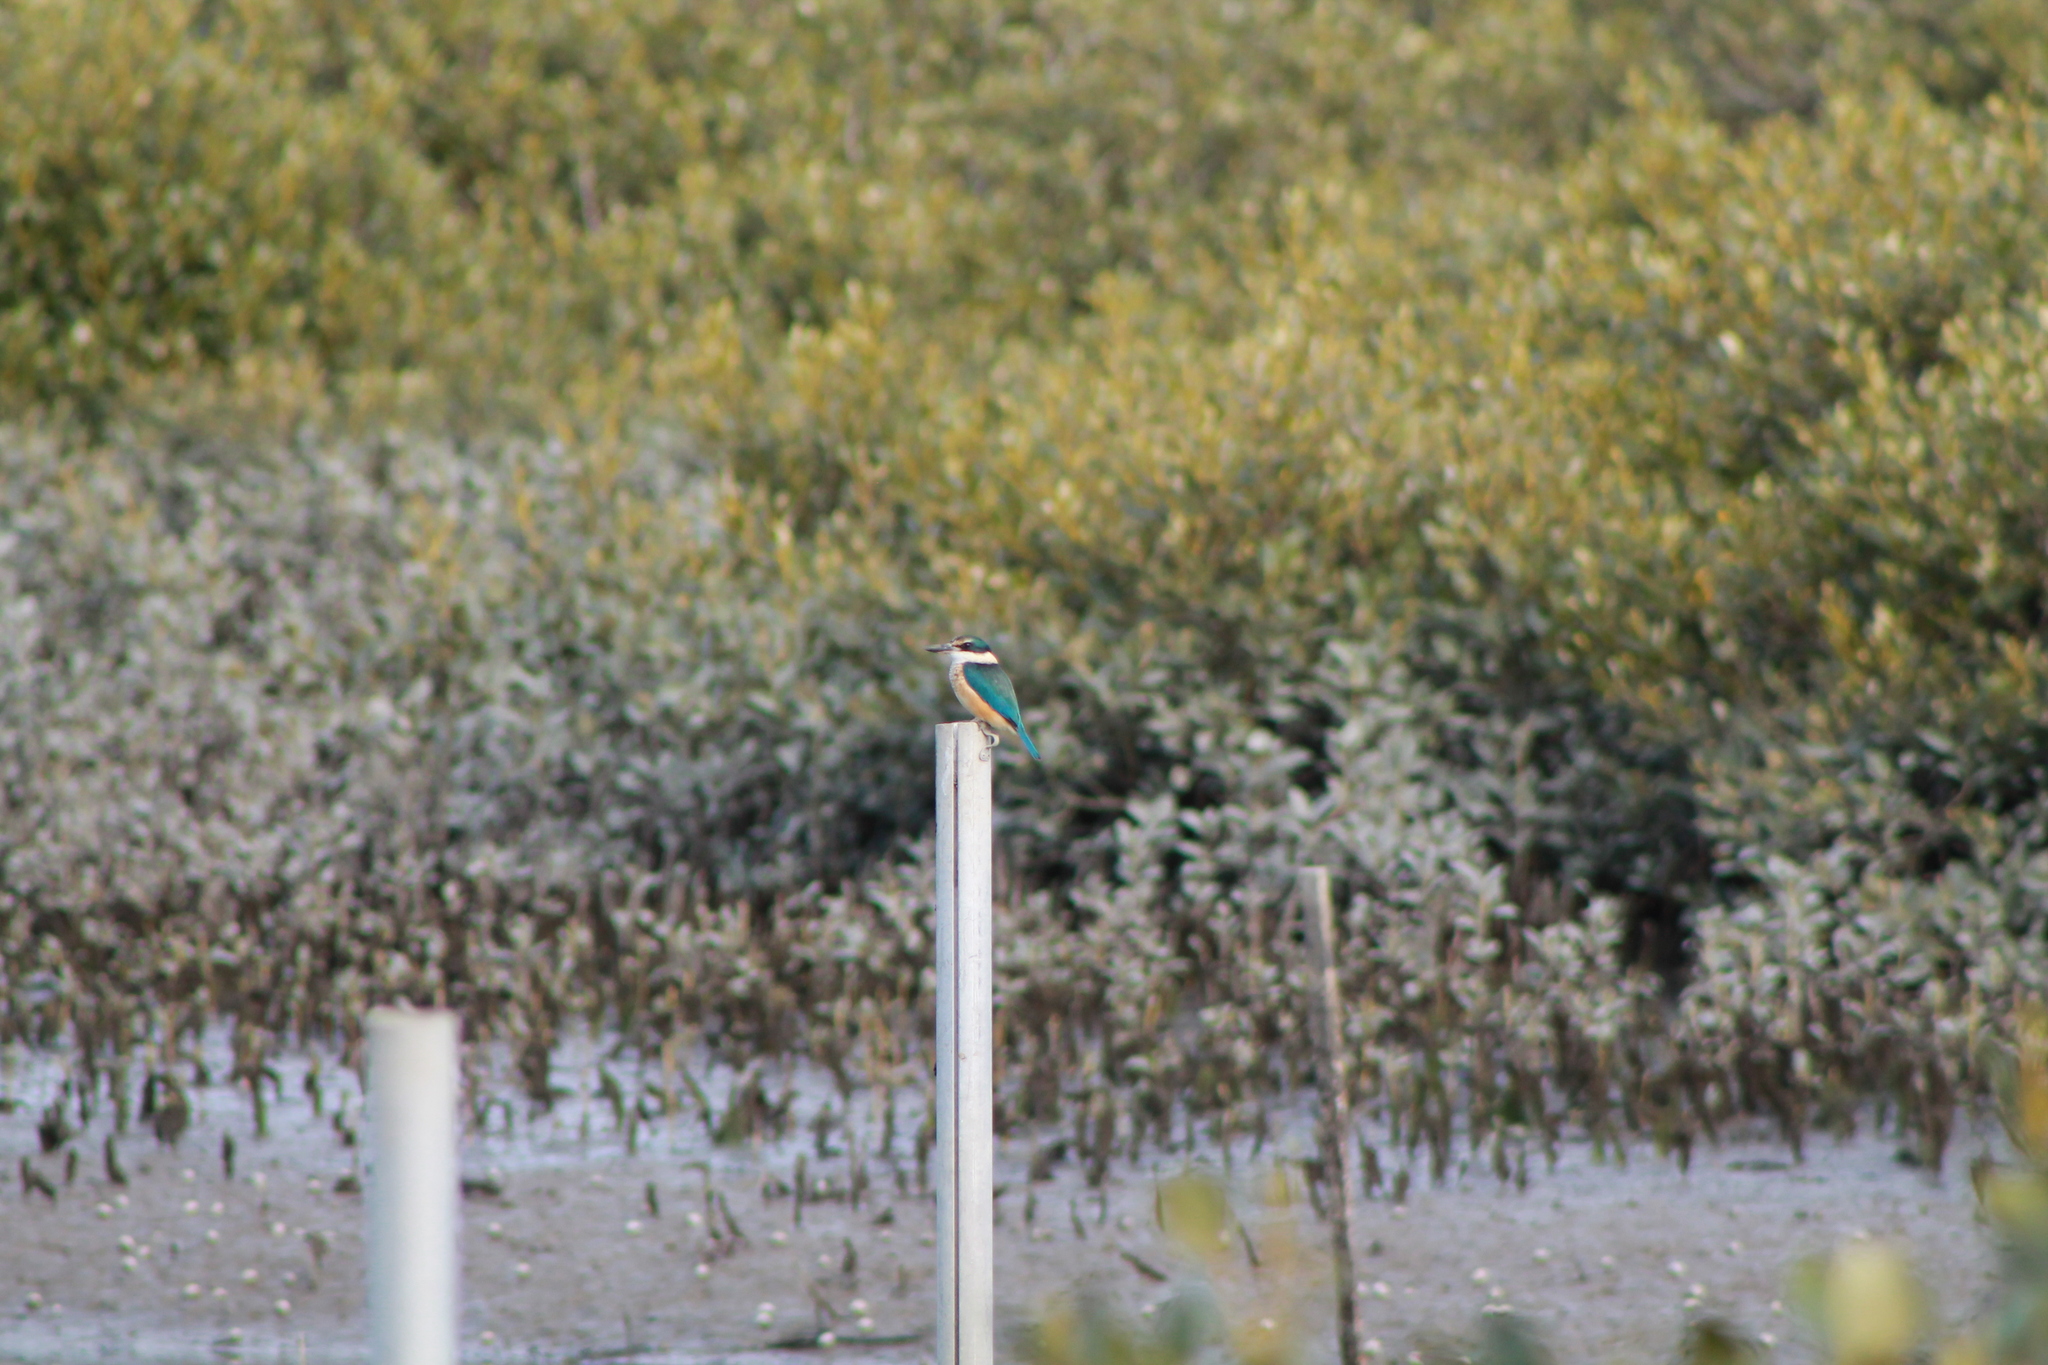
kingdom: Animalia
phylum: Chordata
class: Aves
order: Coraciiformes
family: Alcedinidae
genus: Todiramphus
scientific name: Todiramphus sanctus
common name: Sacred kingfisher
